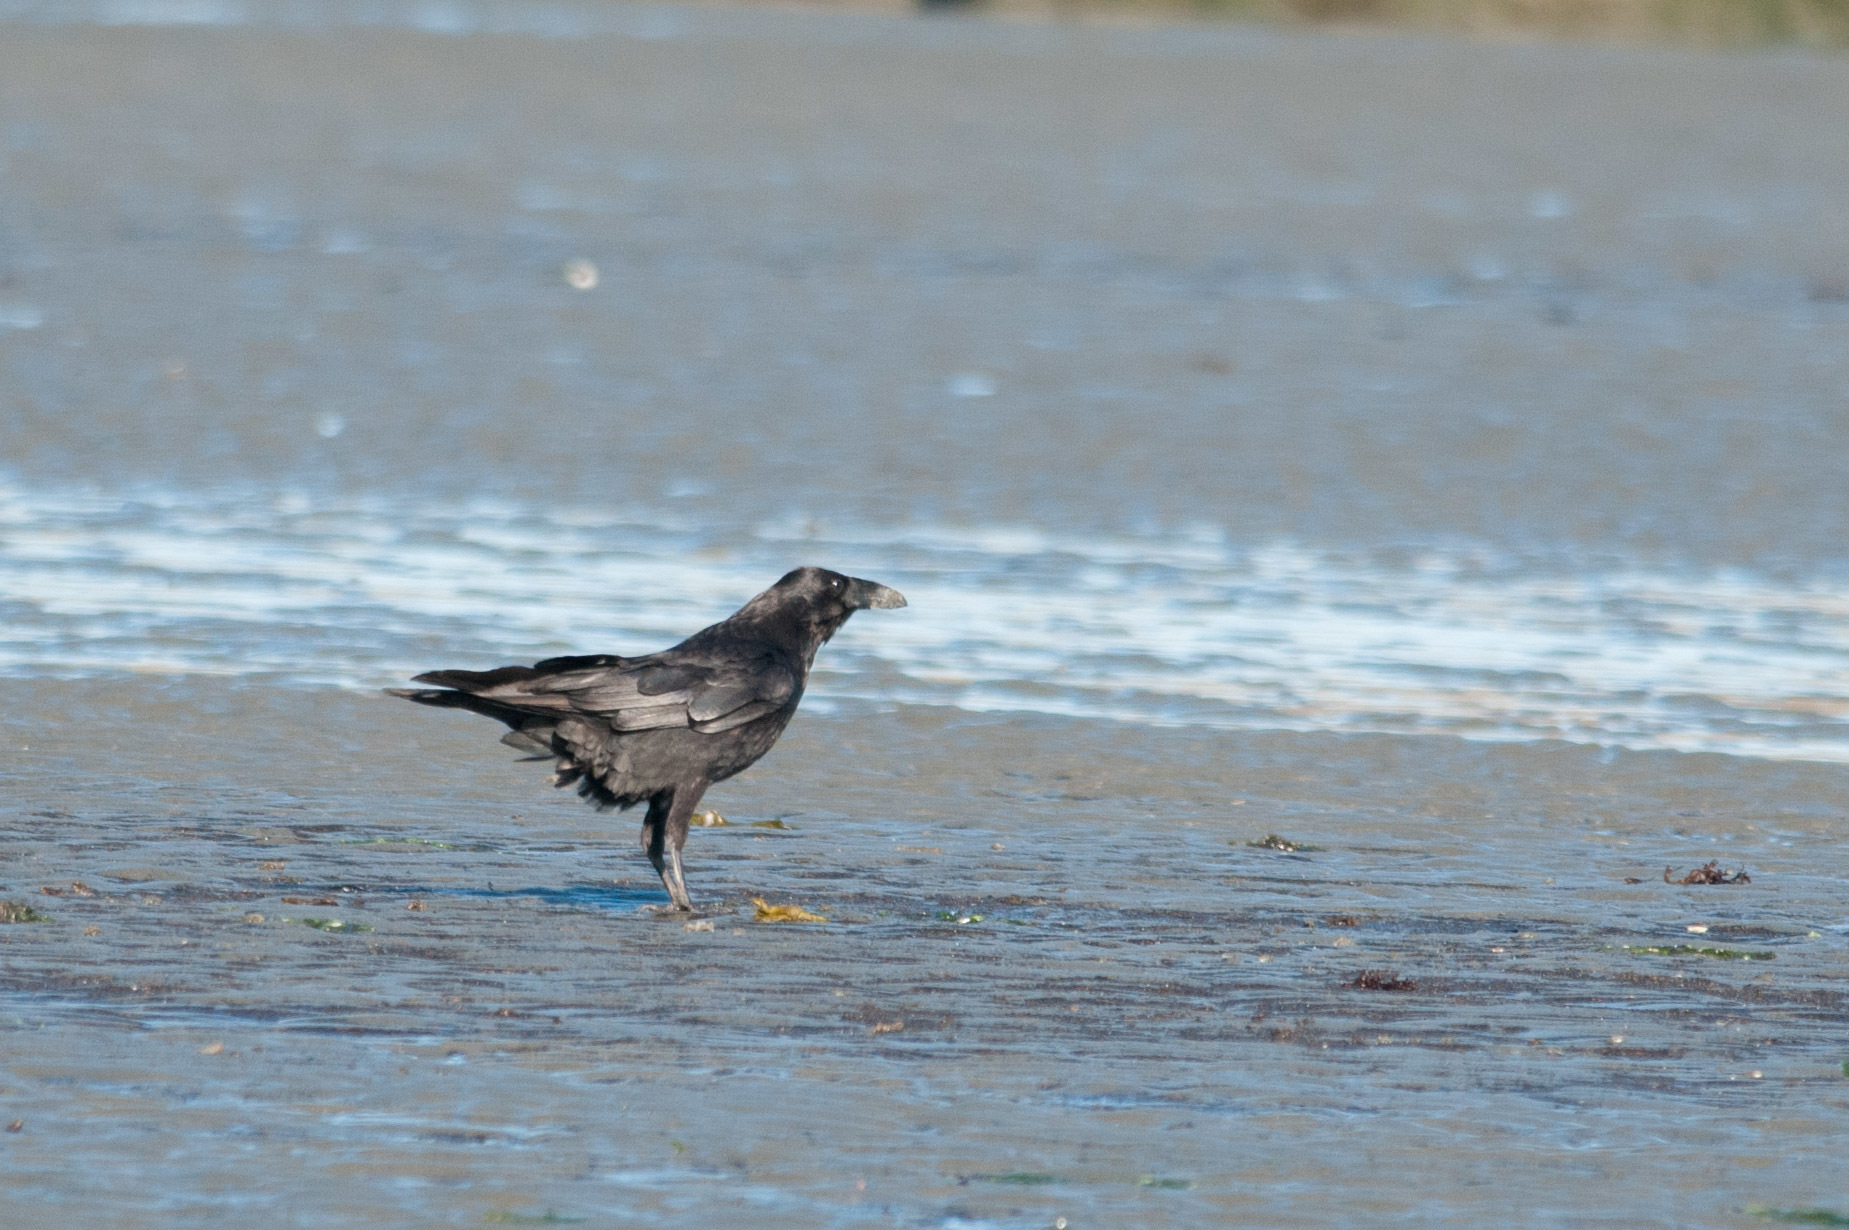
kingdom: Animalia
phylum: Chordata
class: Aves
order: Passeriformes
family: Corvidae
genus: Corvus
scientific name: Corvus corax
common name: Common raven
